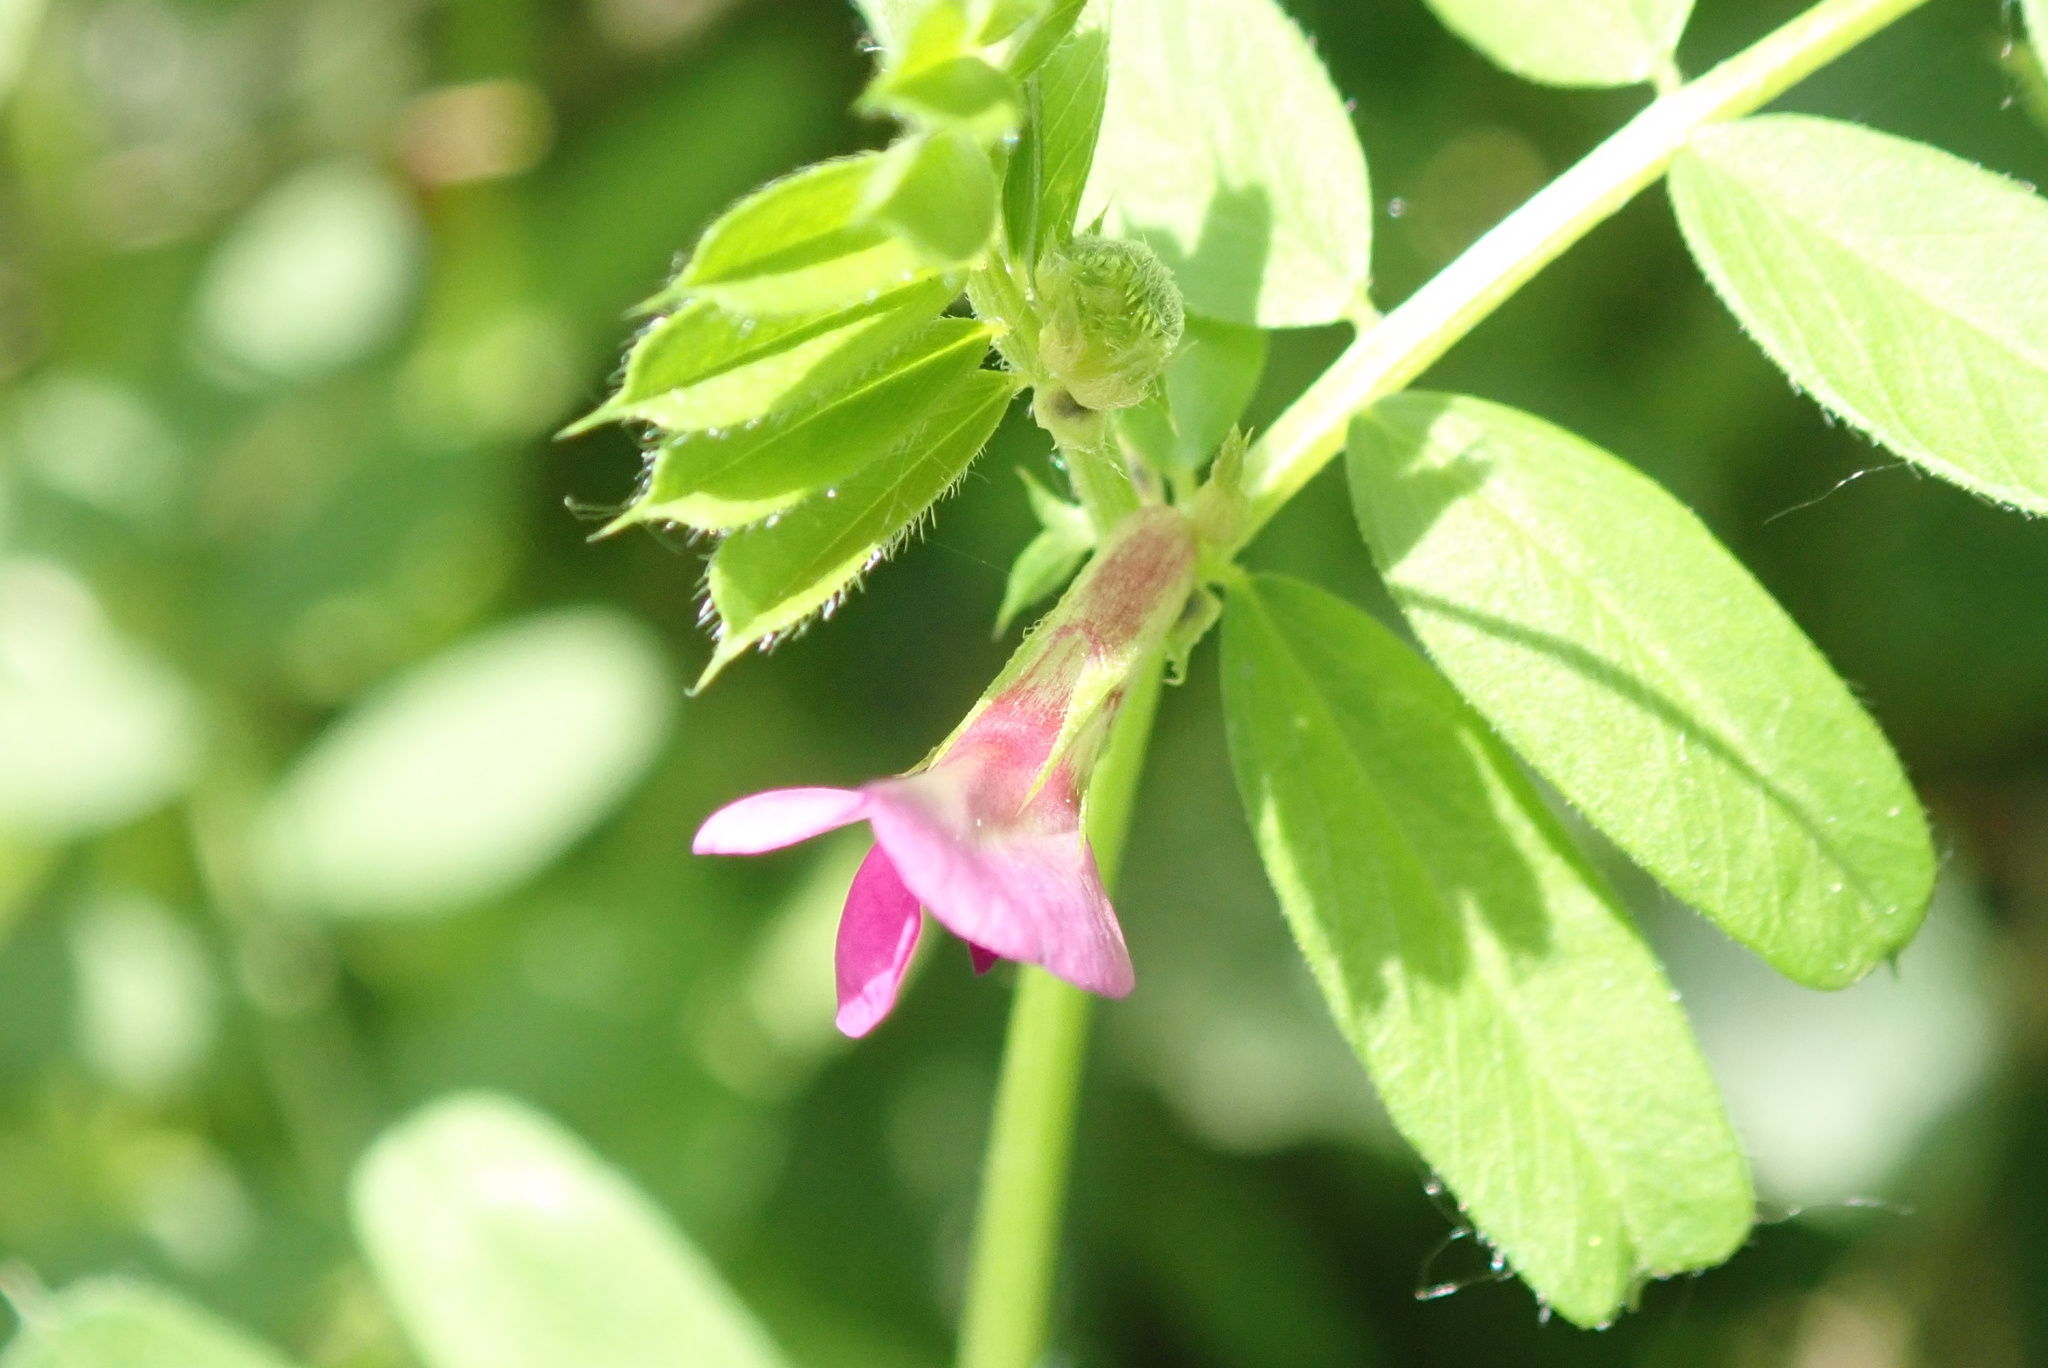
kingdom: Plantae
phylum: Tracheophyta
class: Magnoliopsida
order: Fabales
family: Fabaceae
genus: Vicia
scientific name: Vicia sativa
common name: Garden vetch
